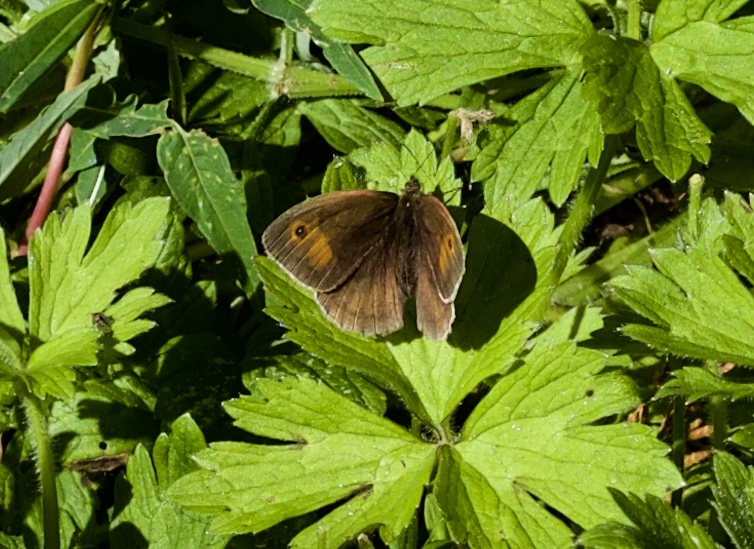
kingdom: Animalia
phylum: Arthropoda
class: Insecta
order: Lepidoptera
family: Nymphalidae
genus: Maniola
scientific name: Maniola jurtina
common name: Meadow brown
